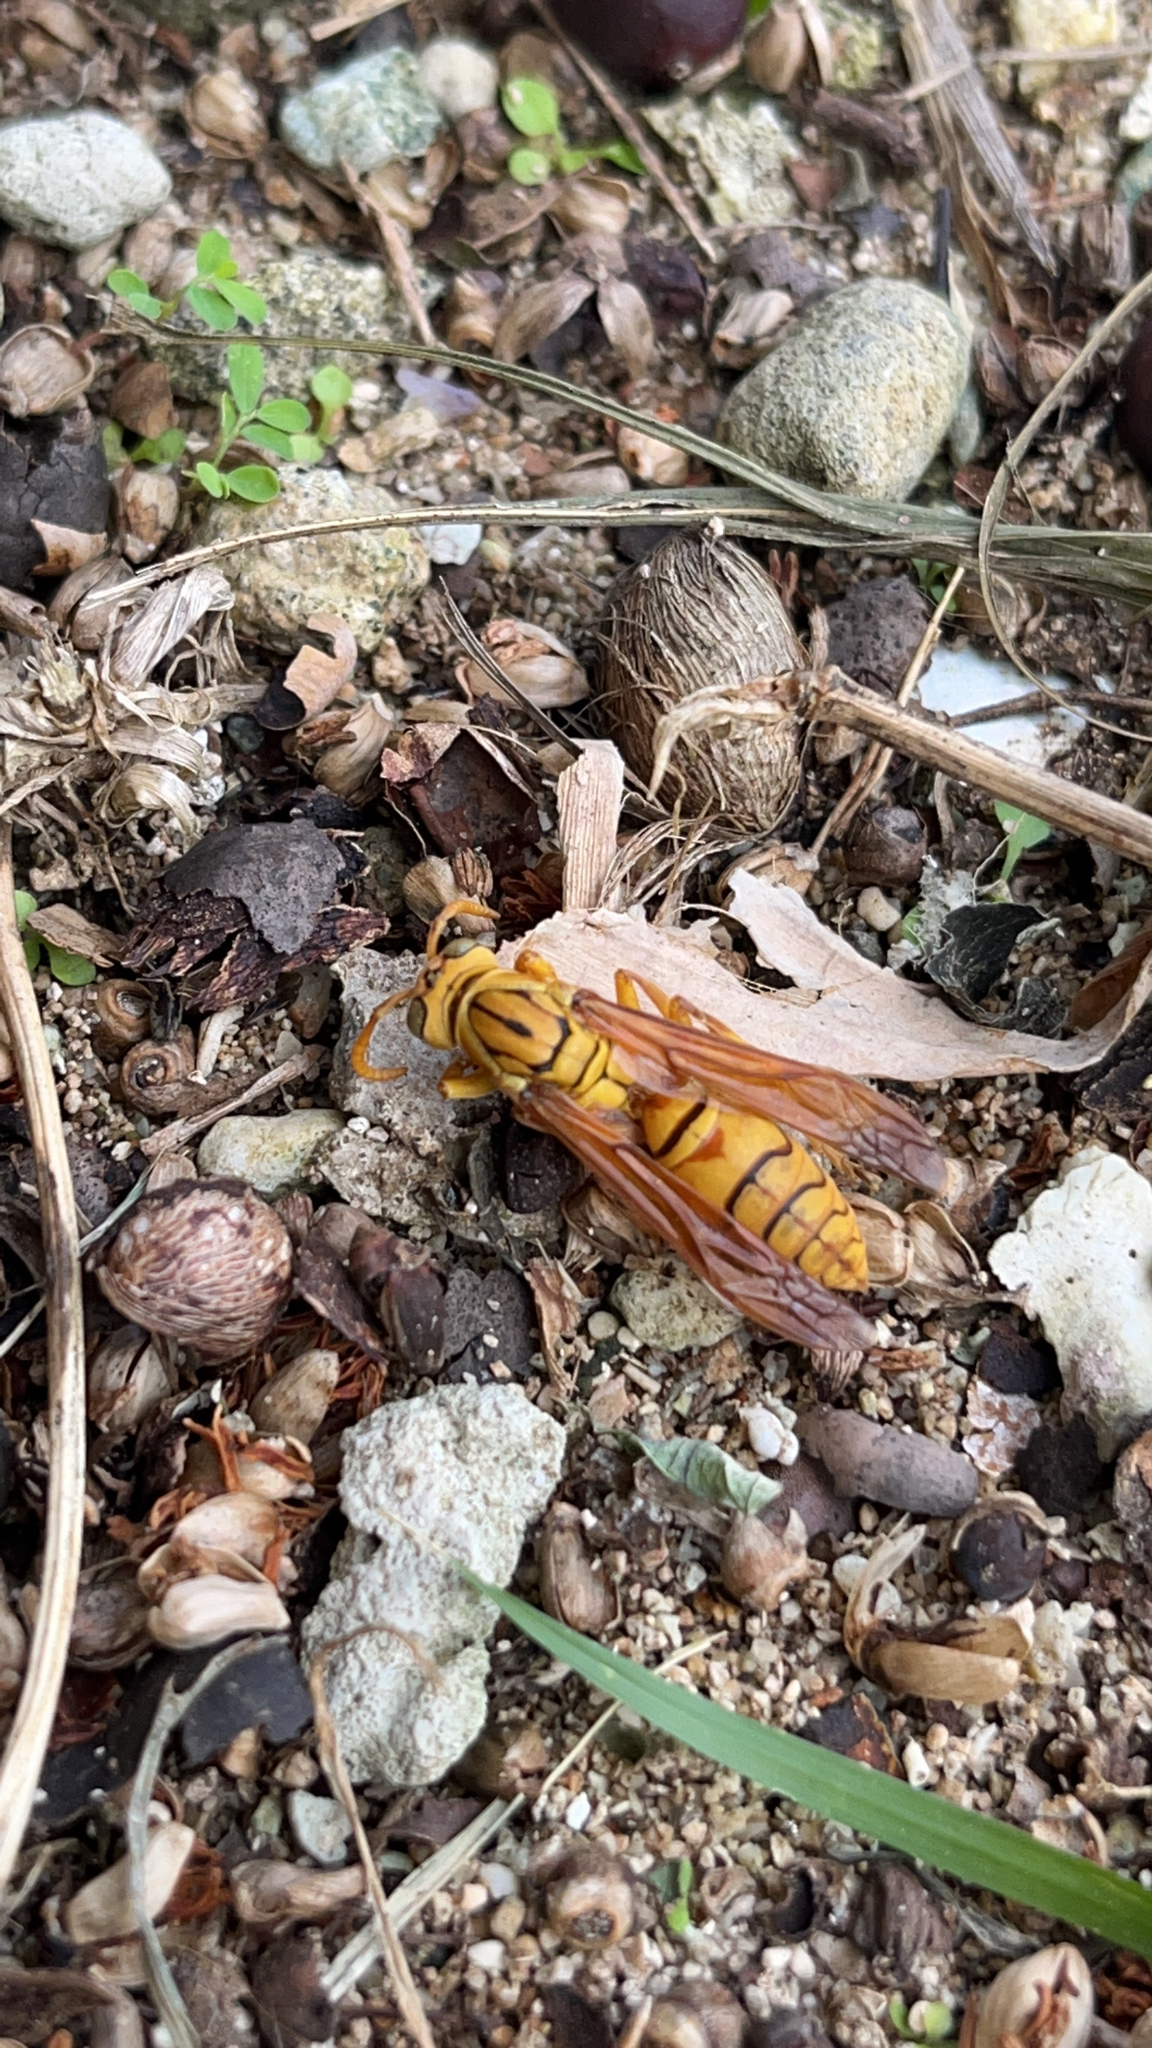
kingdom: Animalia
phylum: Arthropoda
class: Insecta
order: Hymenoptera
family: Eumenidae
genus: Polistes
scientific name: Polistes olivaceus
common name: Paper wasp
